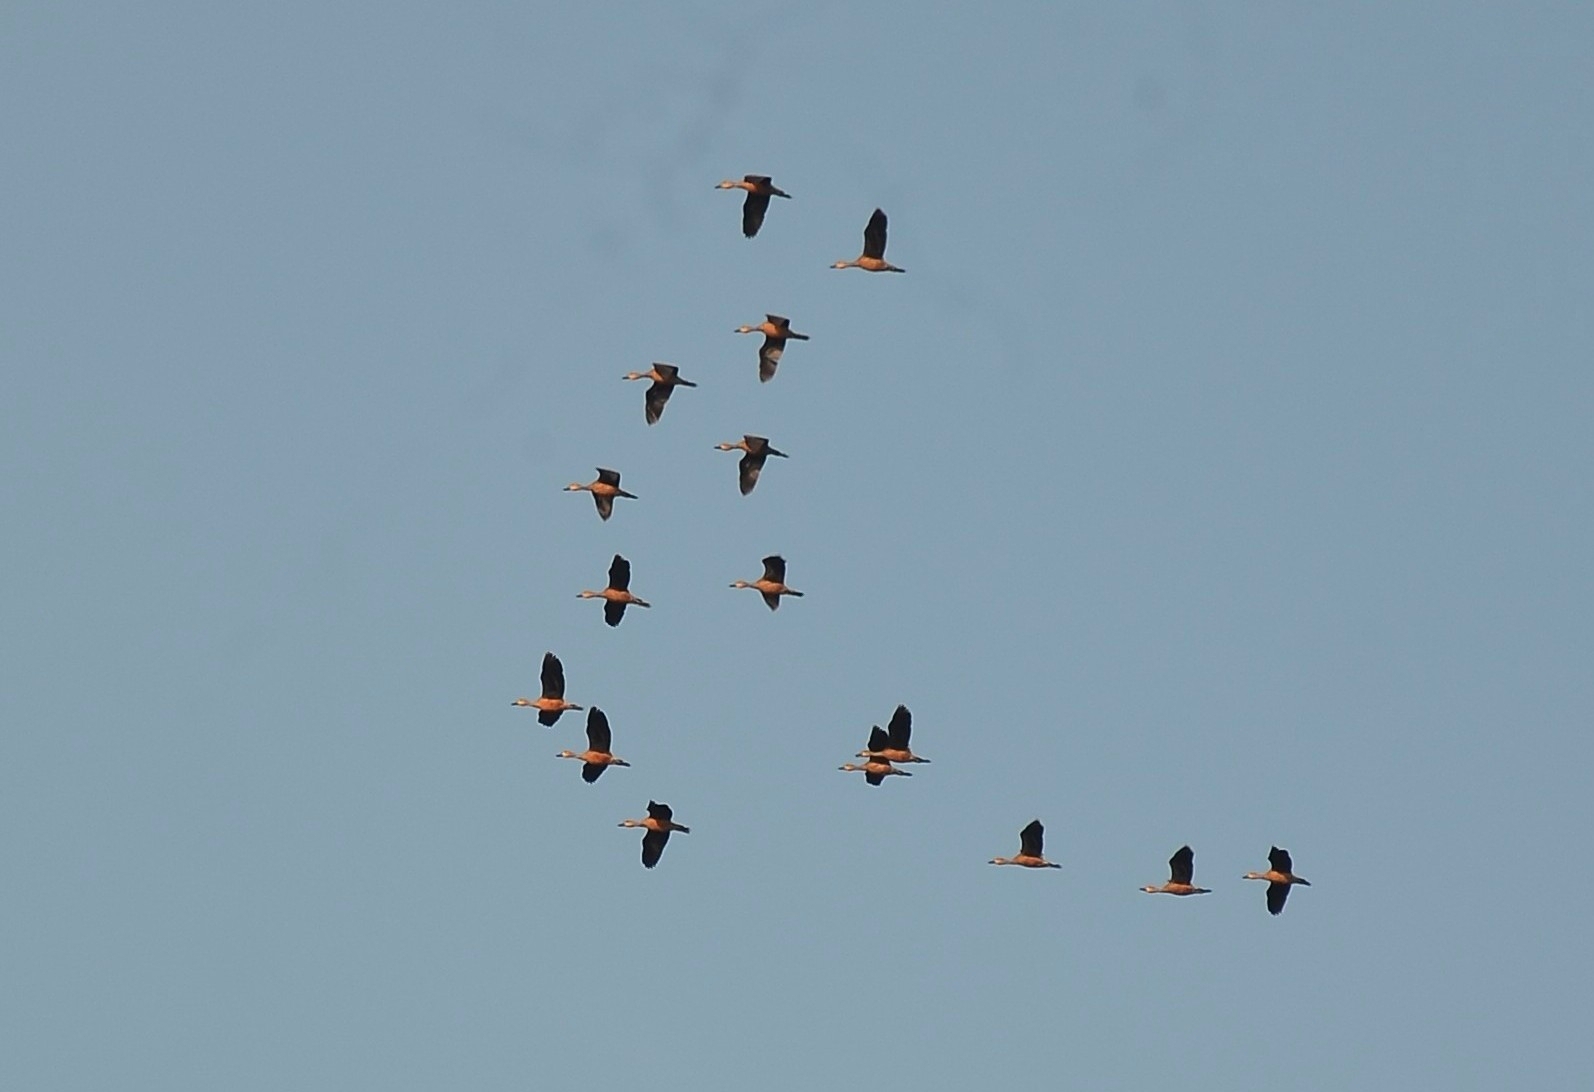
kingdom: Animalia
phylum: Chordata
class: Aves
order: Anseriformes
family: Anatidae
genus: Dendrocygna
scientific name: Dendrocygna javanica
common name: Lesser whistling-duck
